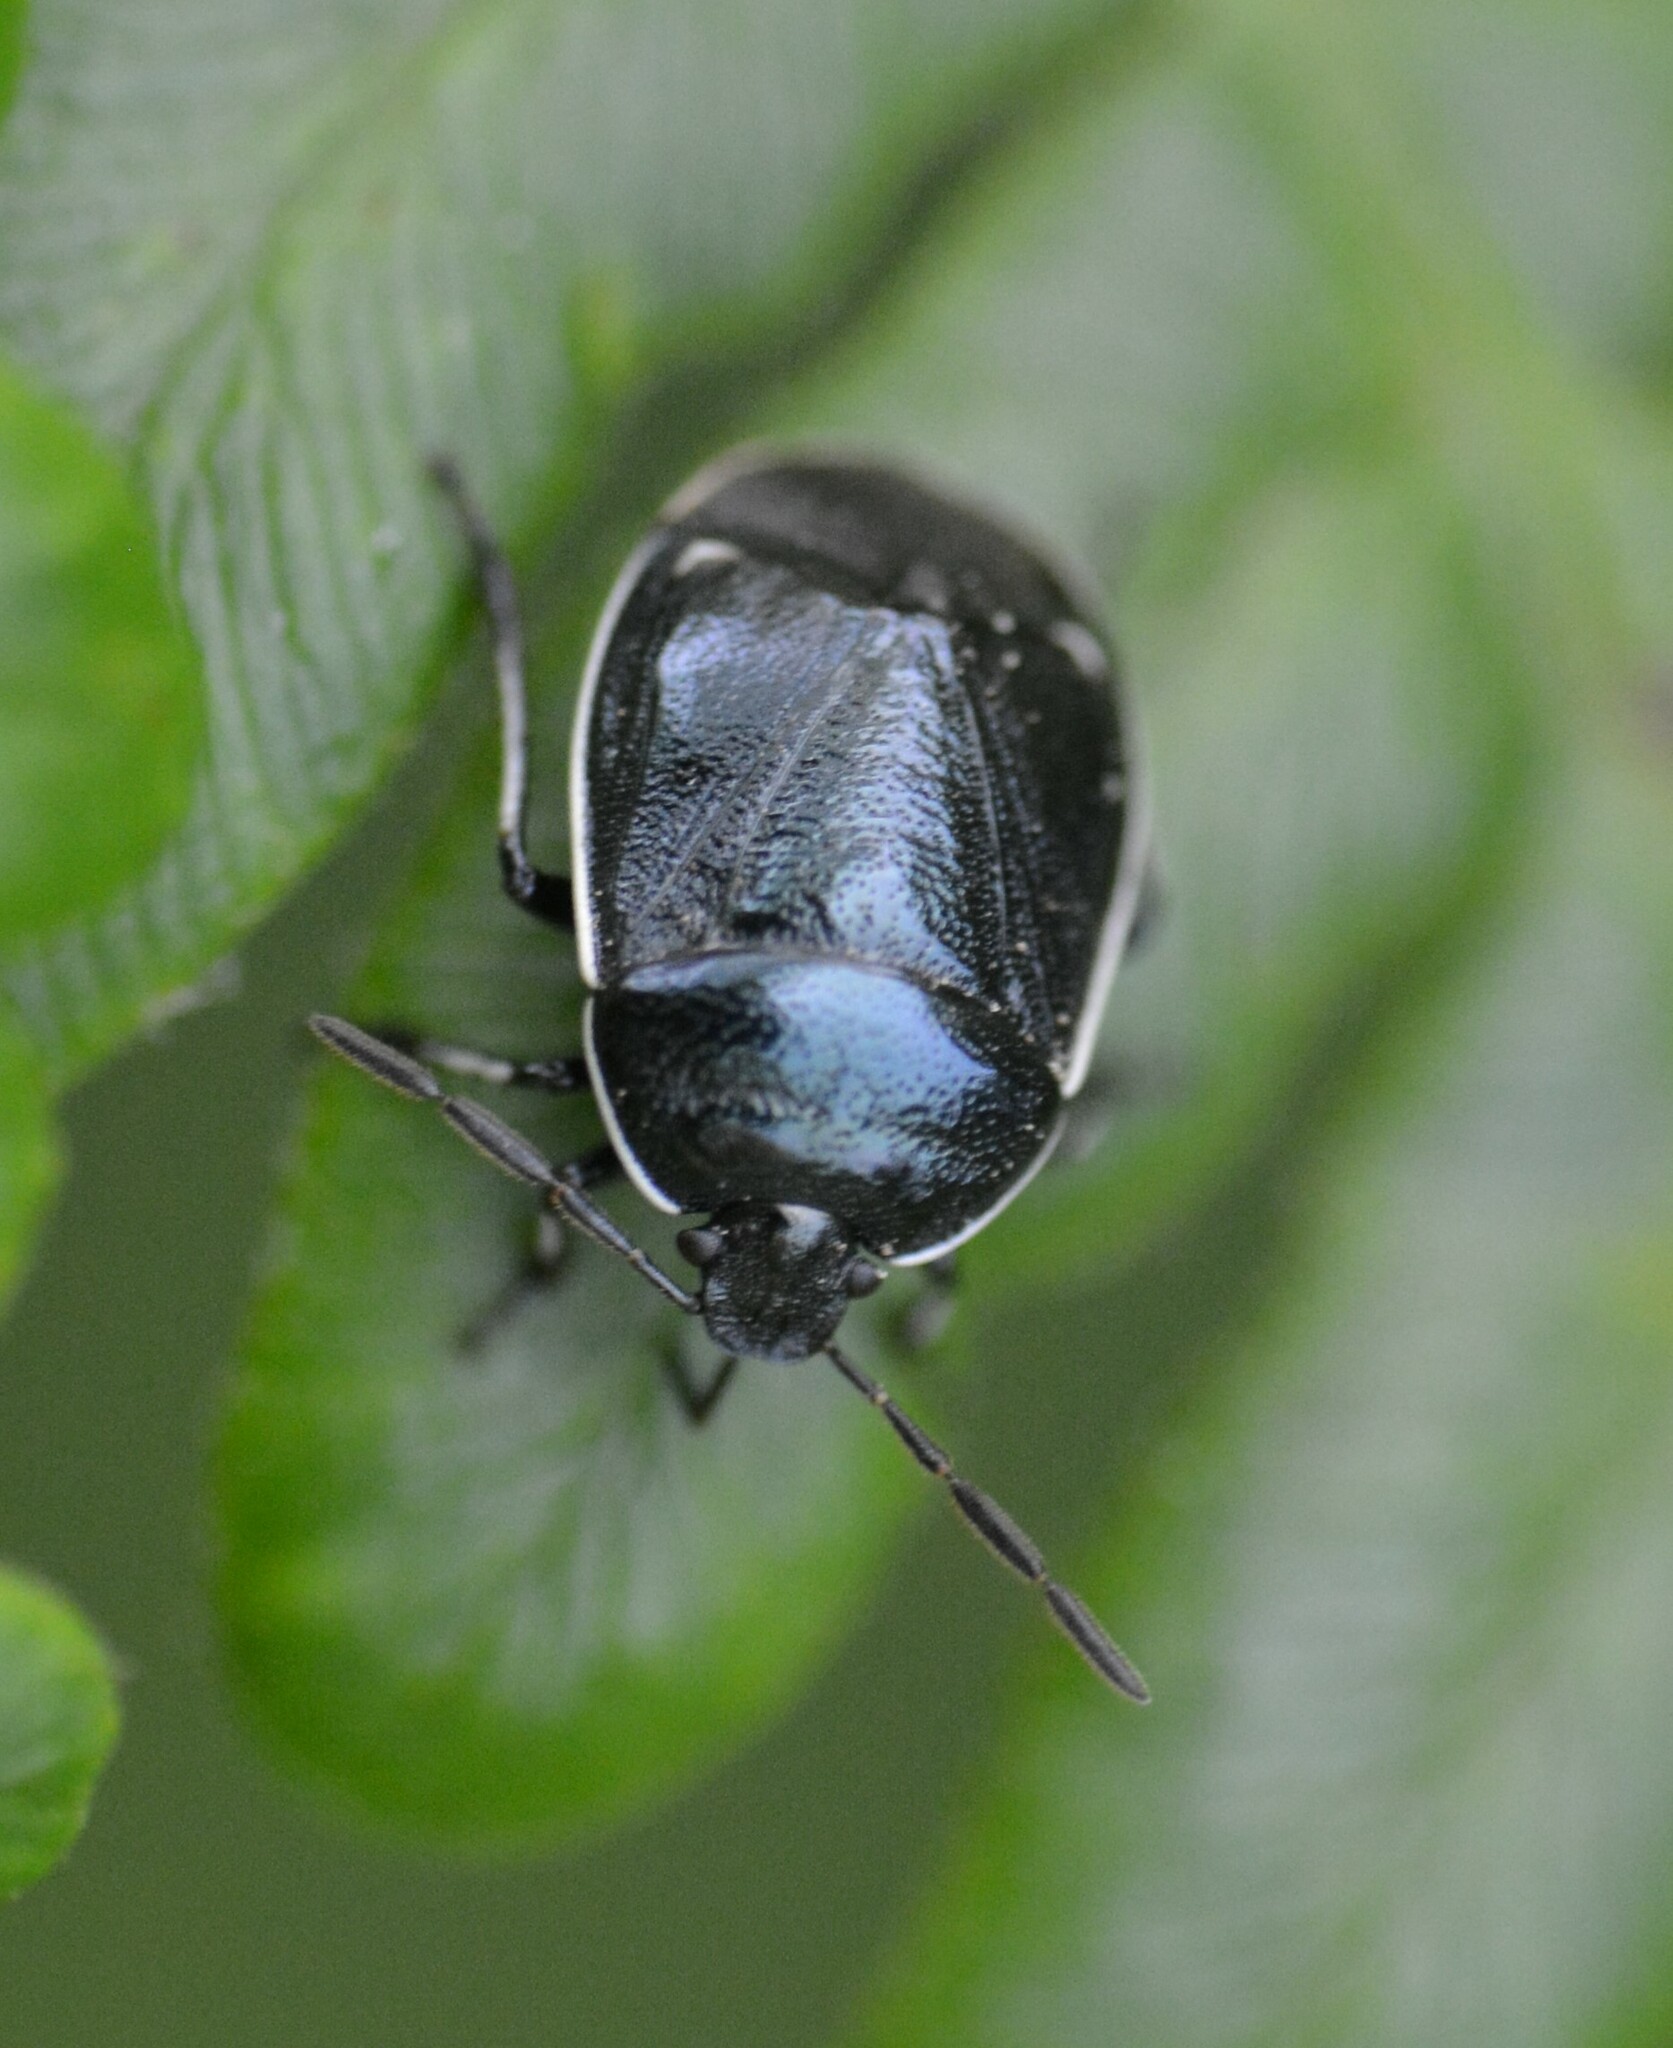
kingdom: Animalia
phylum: Arthropoda
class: Insecta
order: Hemiptera
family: Cydnidae
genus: Sehirus
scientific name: Sehirus cinctus
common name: White-margined burrower bug
